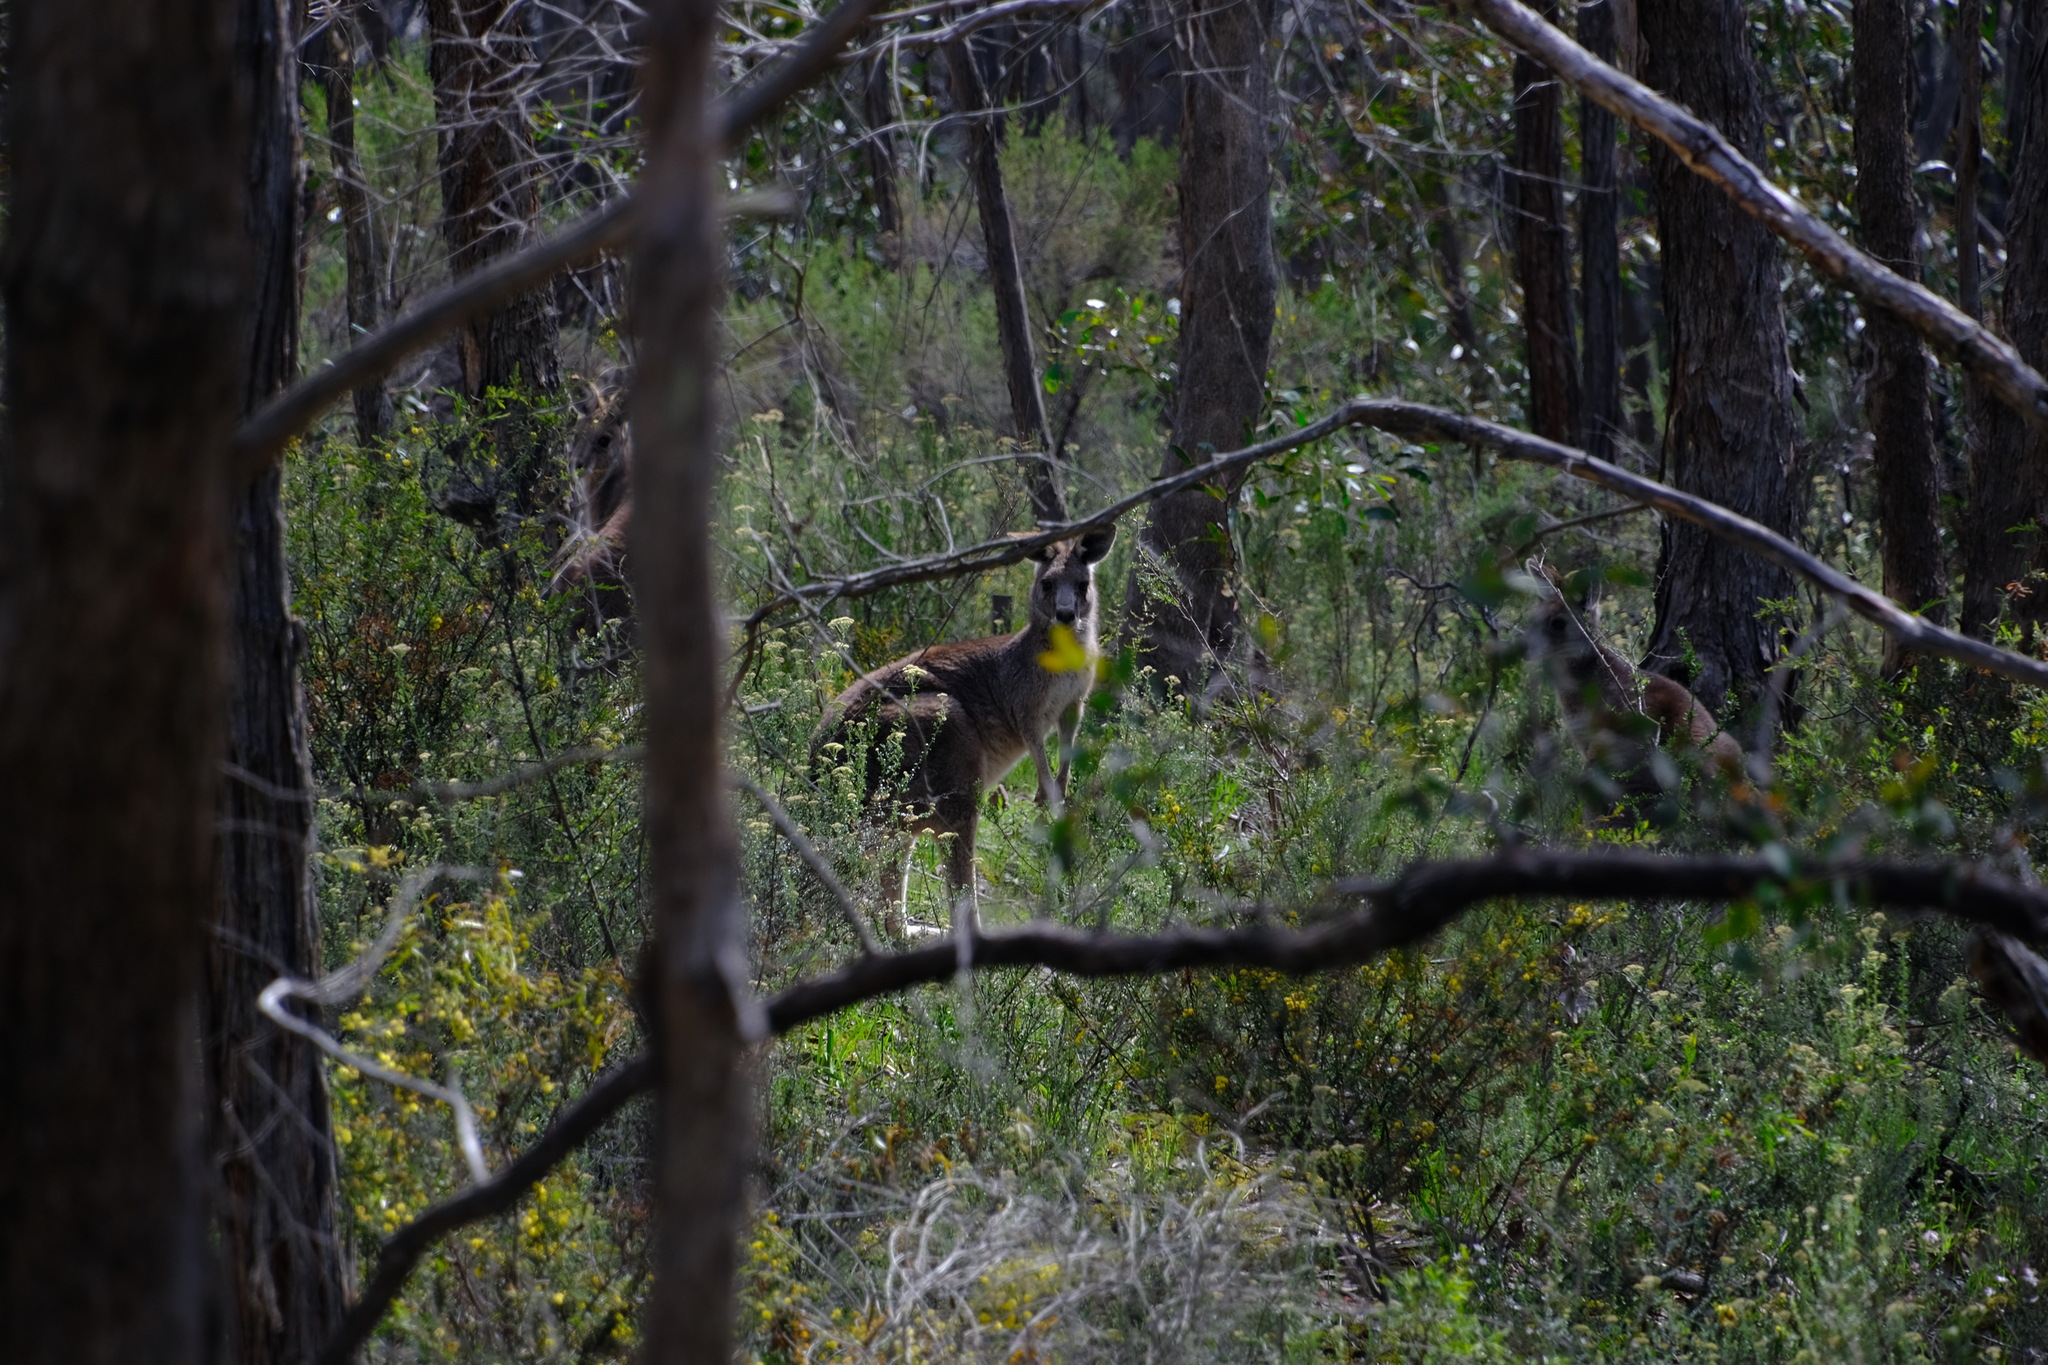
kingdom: Animalia
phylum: Chordata
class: Mammalia
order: Diprotodontia
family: Macropodidae
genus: Macropus
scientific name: Macropus giganteus
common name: Eastern grey kangaroo
